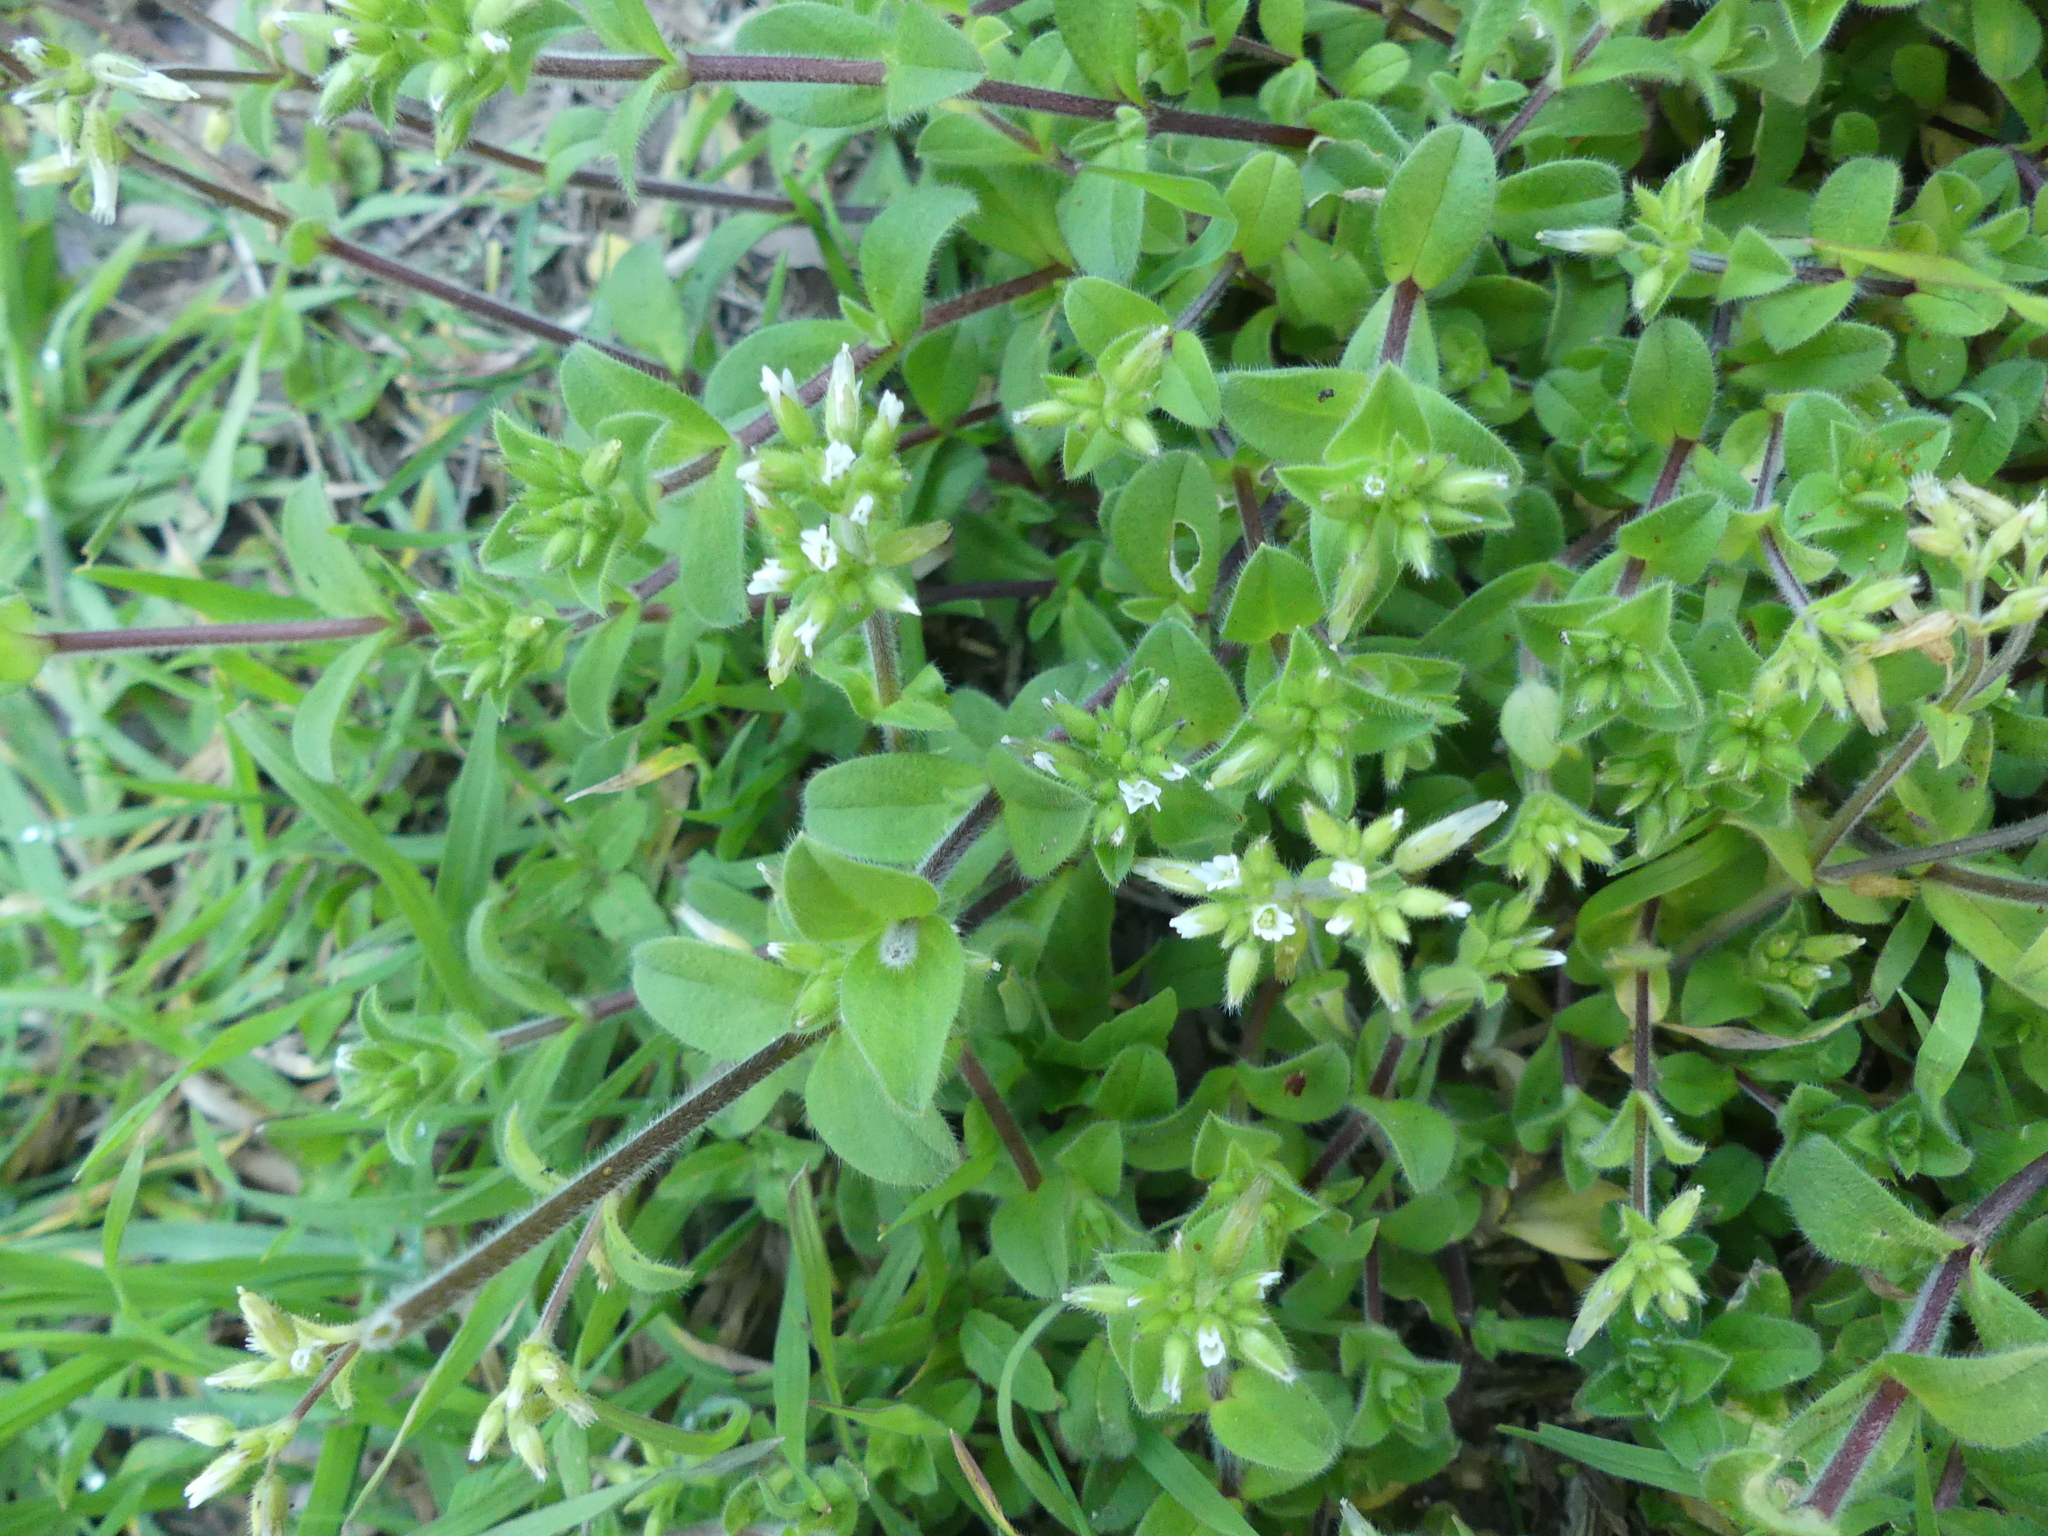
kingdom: Plantae
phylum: Tracheophyta
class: Magnoliopsida
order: Caryophyllales
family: Caryophyllaceae
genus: Cerastium
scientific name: Cerastium glomeratum
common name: Sticky chickweed
